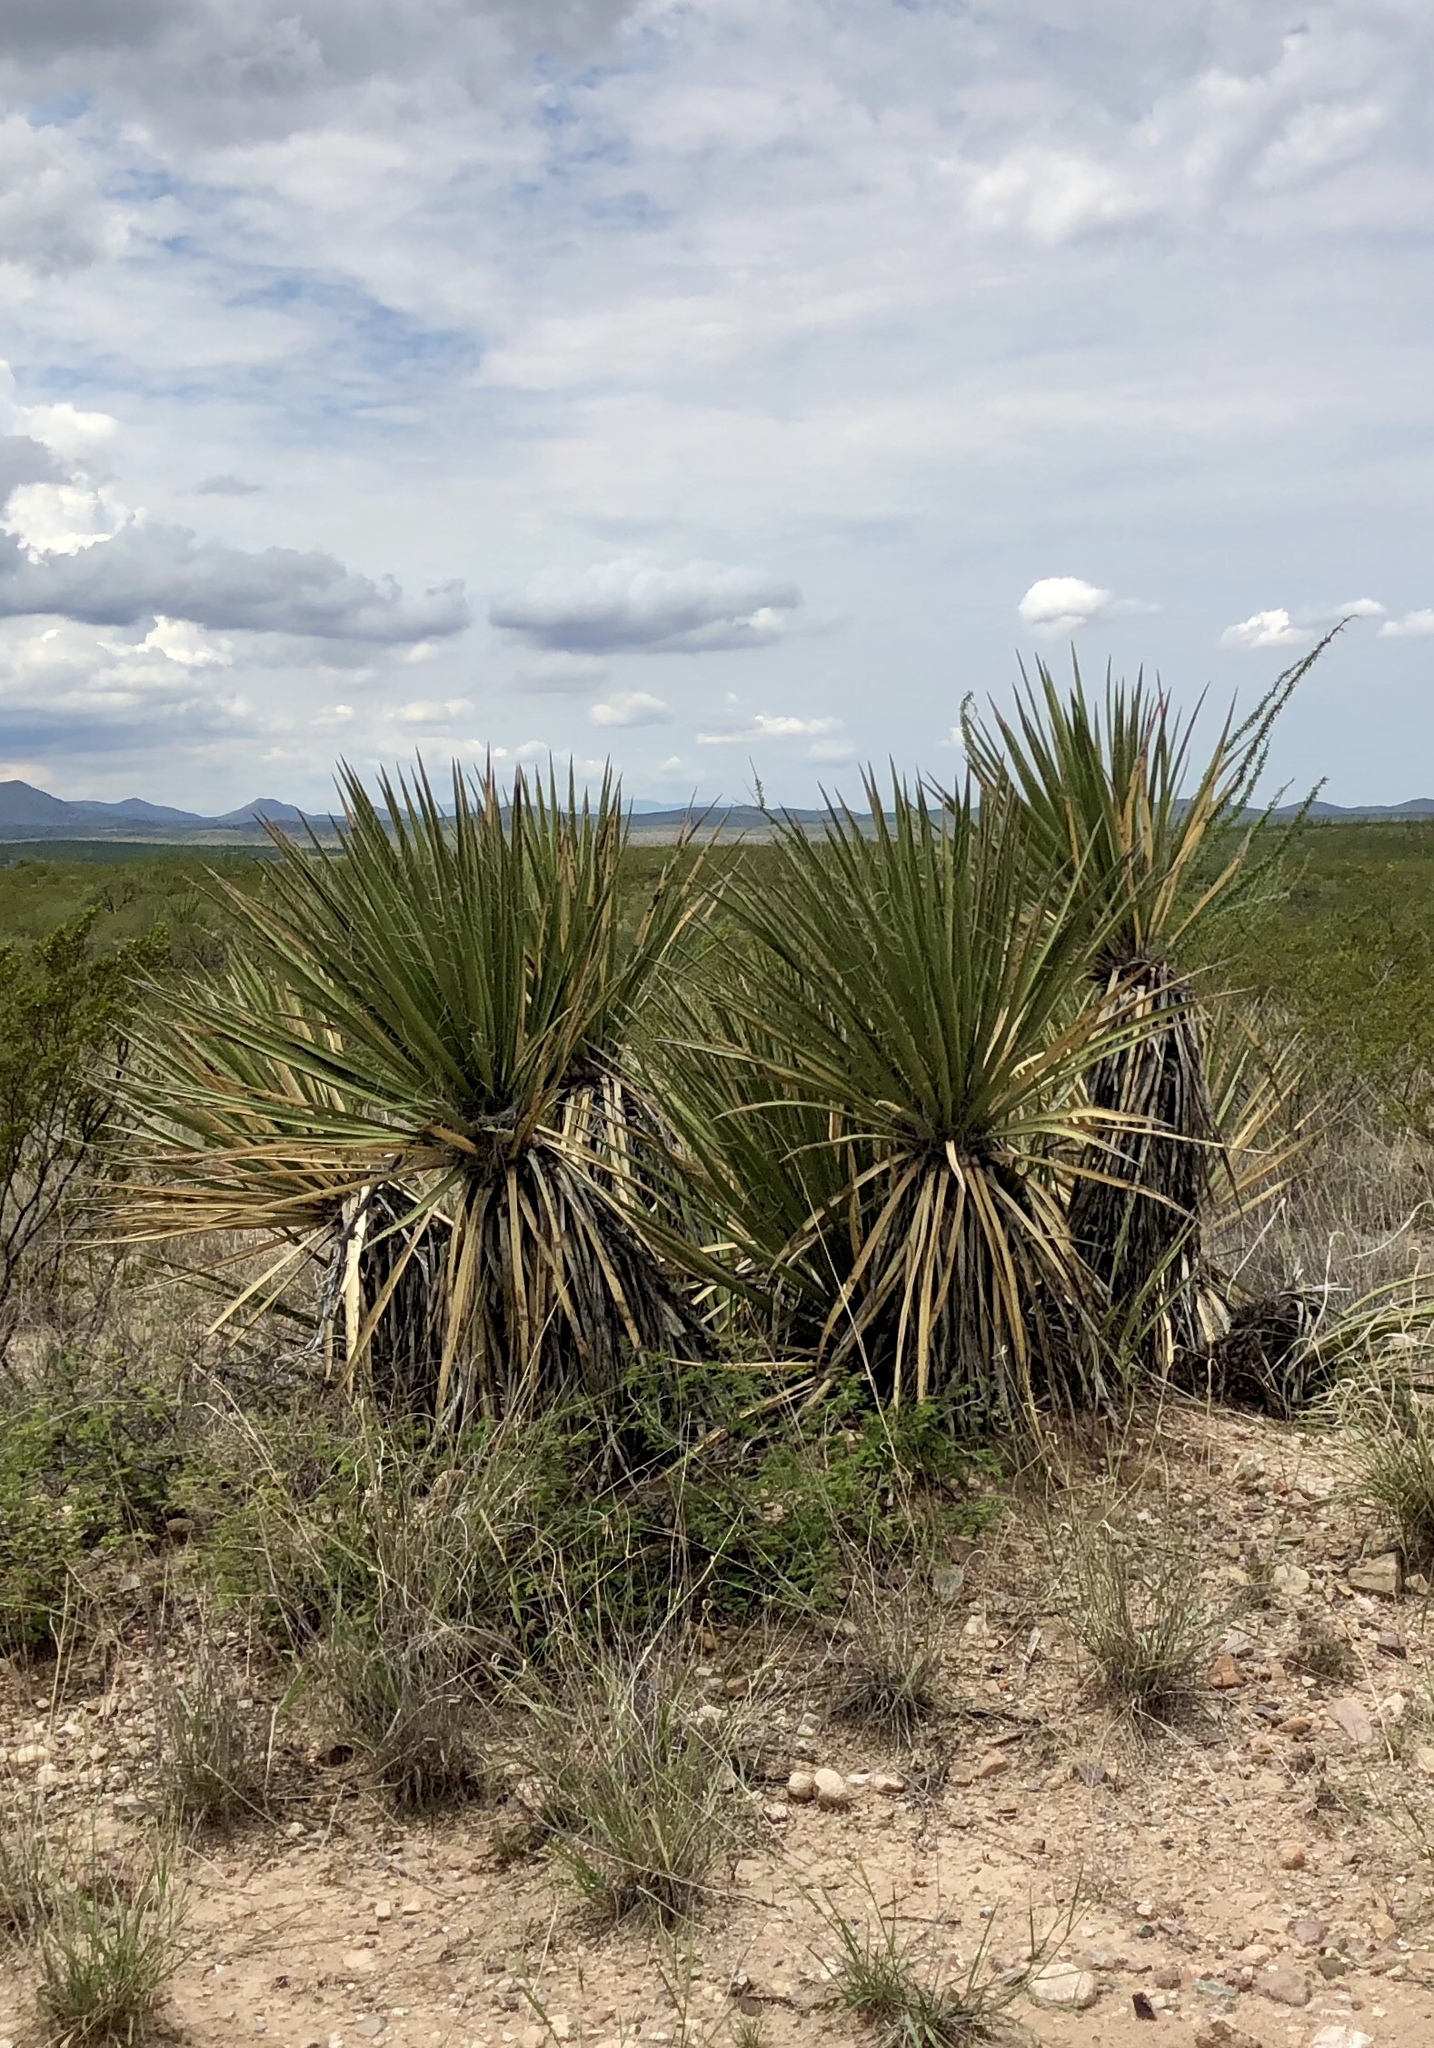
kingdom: Plantae
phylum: Tracheophyta
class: Liliopsida
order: Asparagales
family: Asparagaceae
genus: Yucca
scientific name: Yucca baccata
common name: Banana yucca
